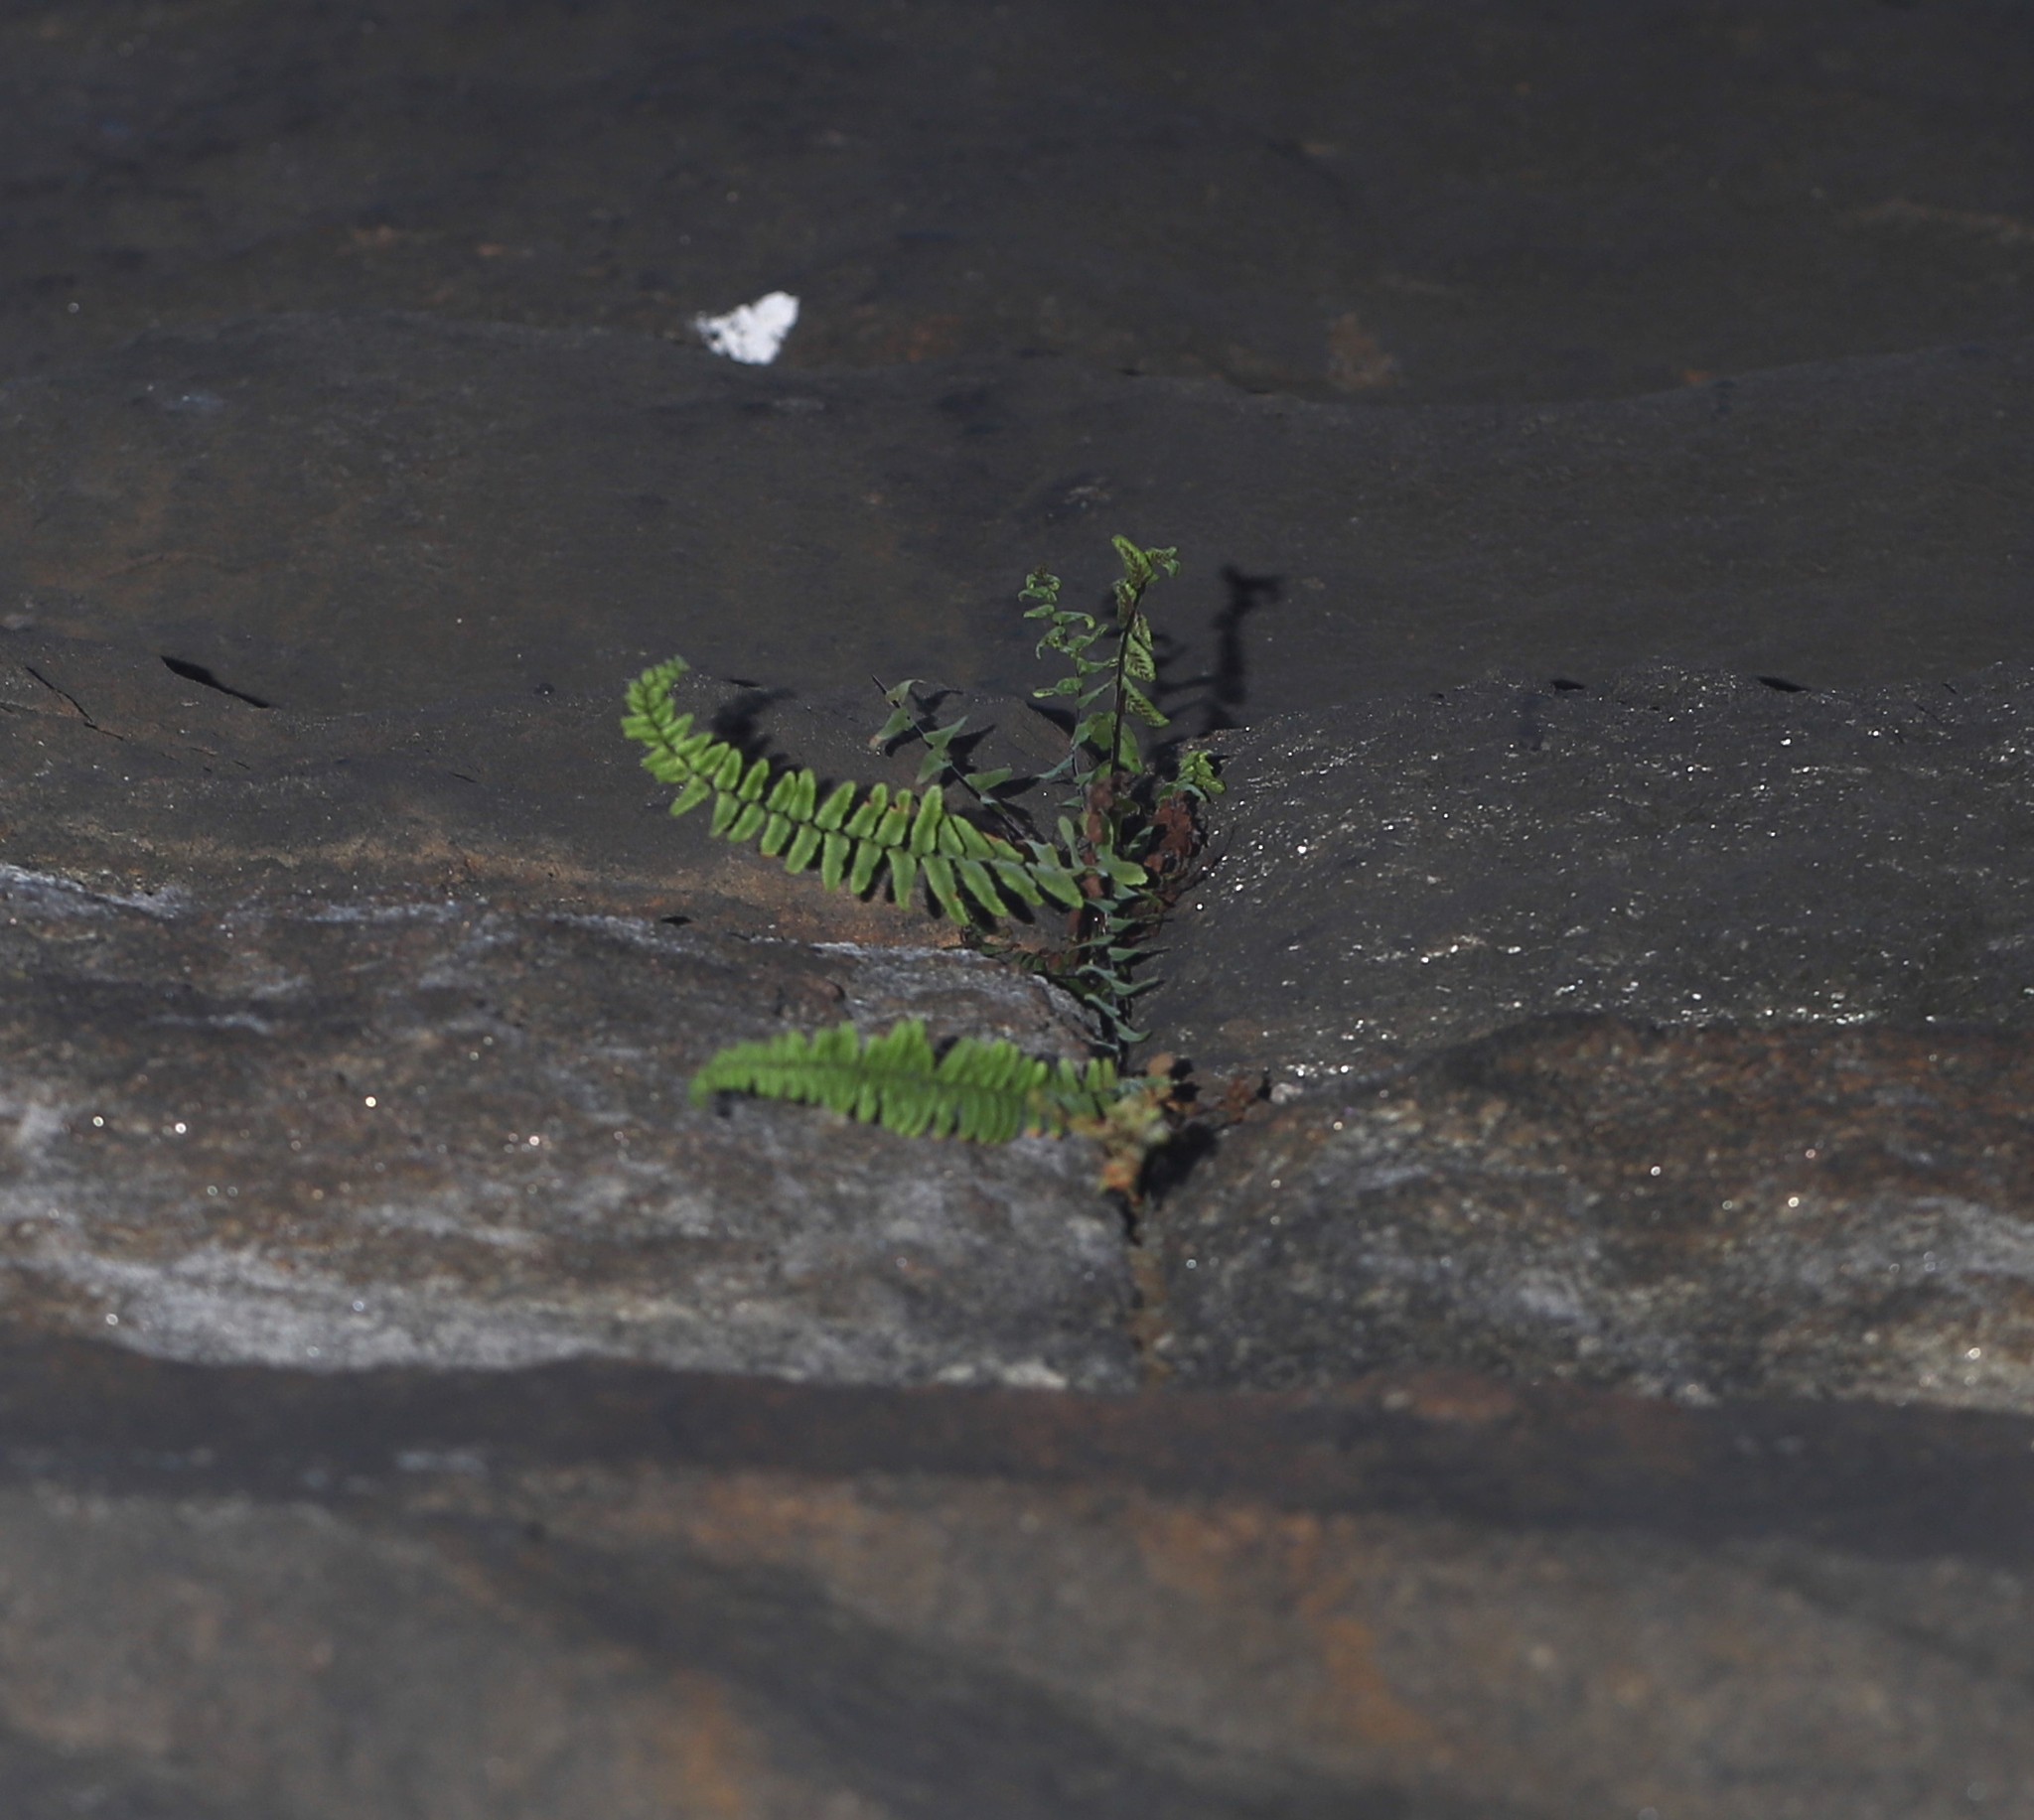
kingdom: Plantae
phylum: Tracheophyta
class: Polypodiopsida
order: Polypodiales
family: Aspleniaceae
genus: Asplenium
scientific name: Asplenium platyneuron
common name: Ebony spleenwort
